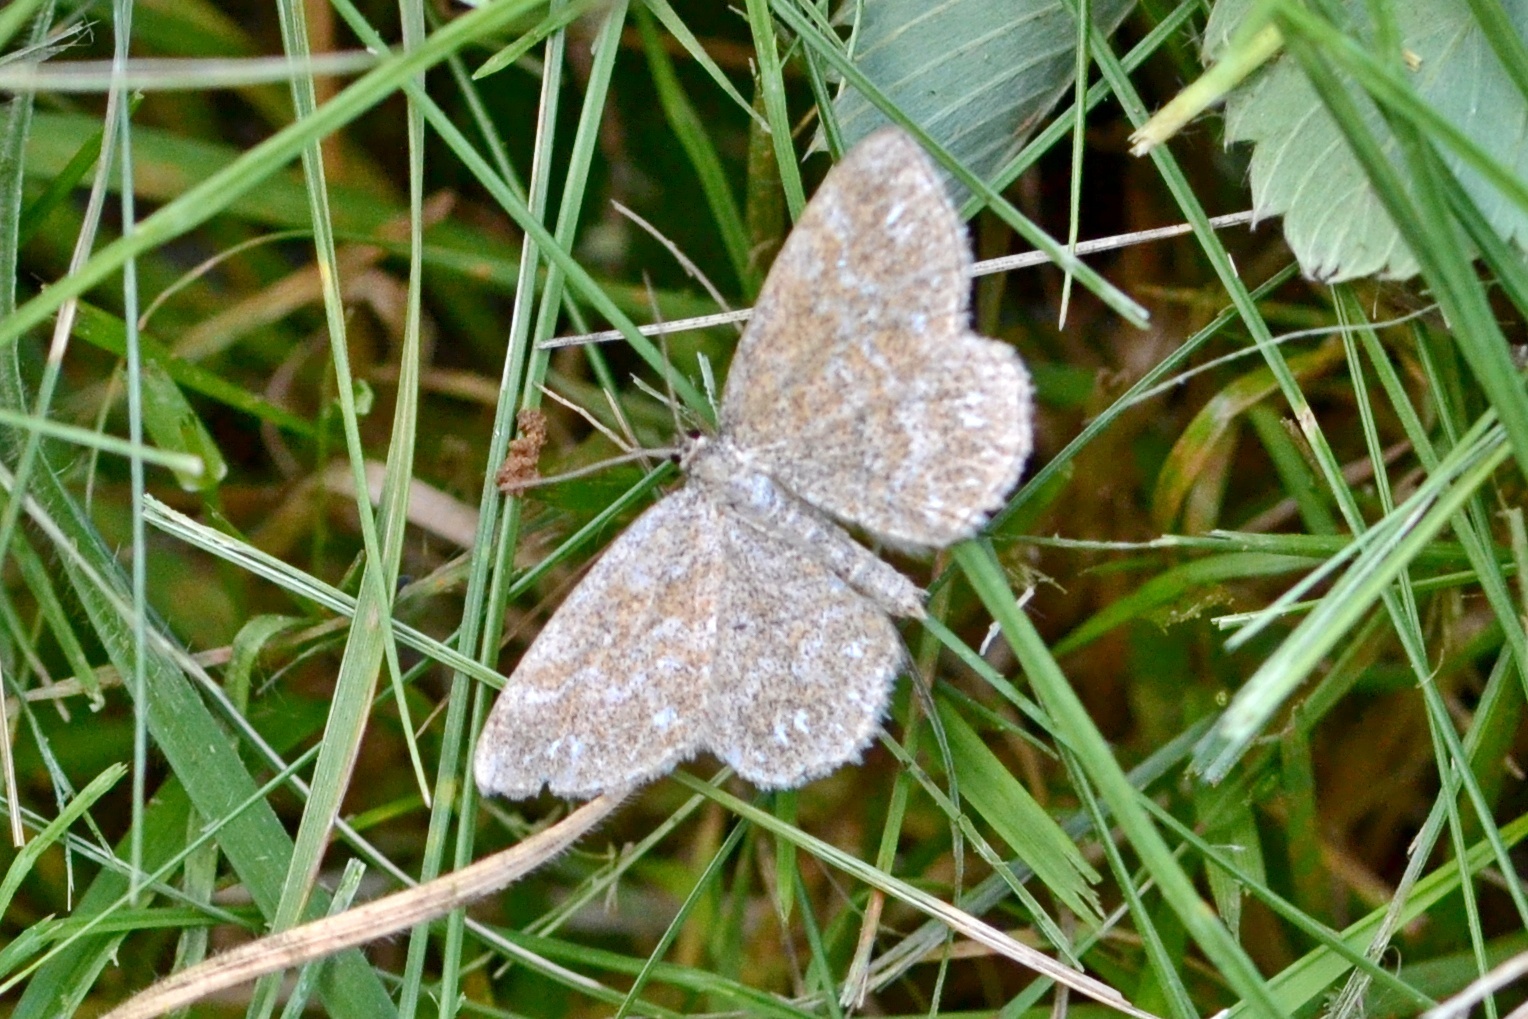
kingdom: Animalia
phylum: Arthropoda
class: Insecta
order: Lepidoptera
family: Geometridae
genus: Scopula
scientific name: Scopula immorata
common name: Lewes wave
